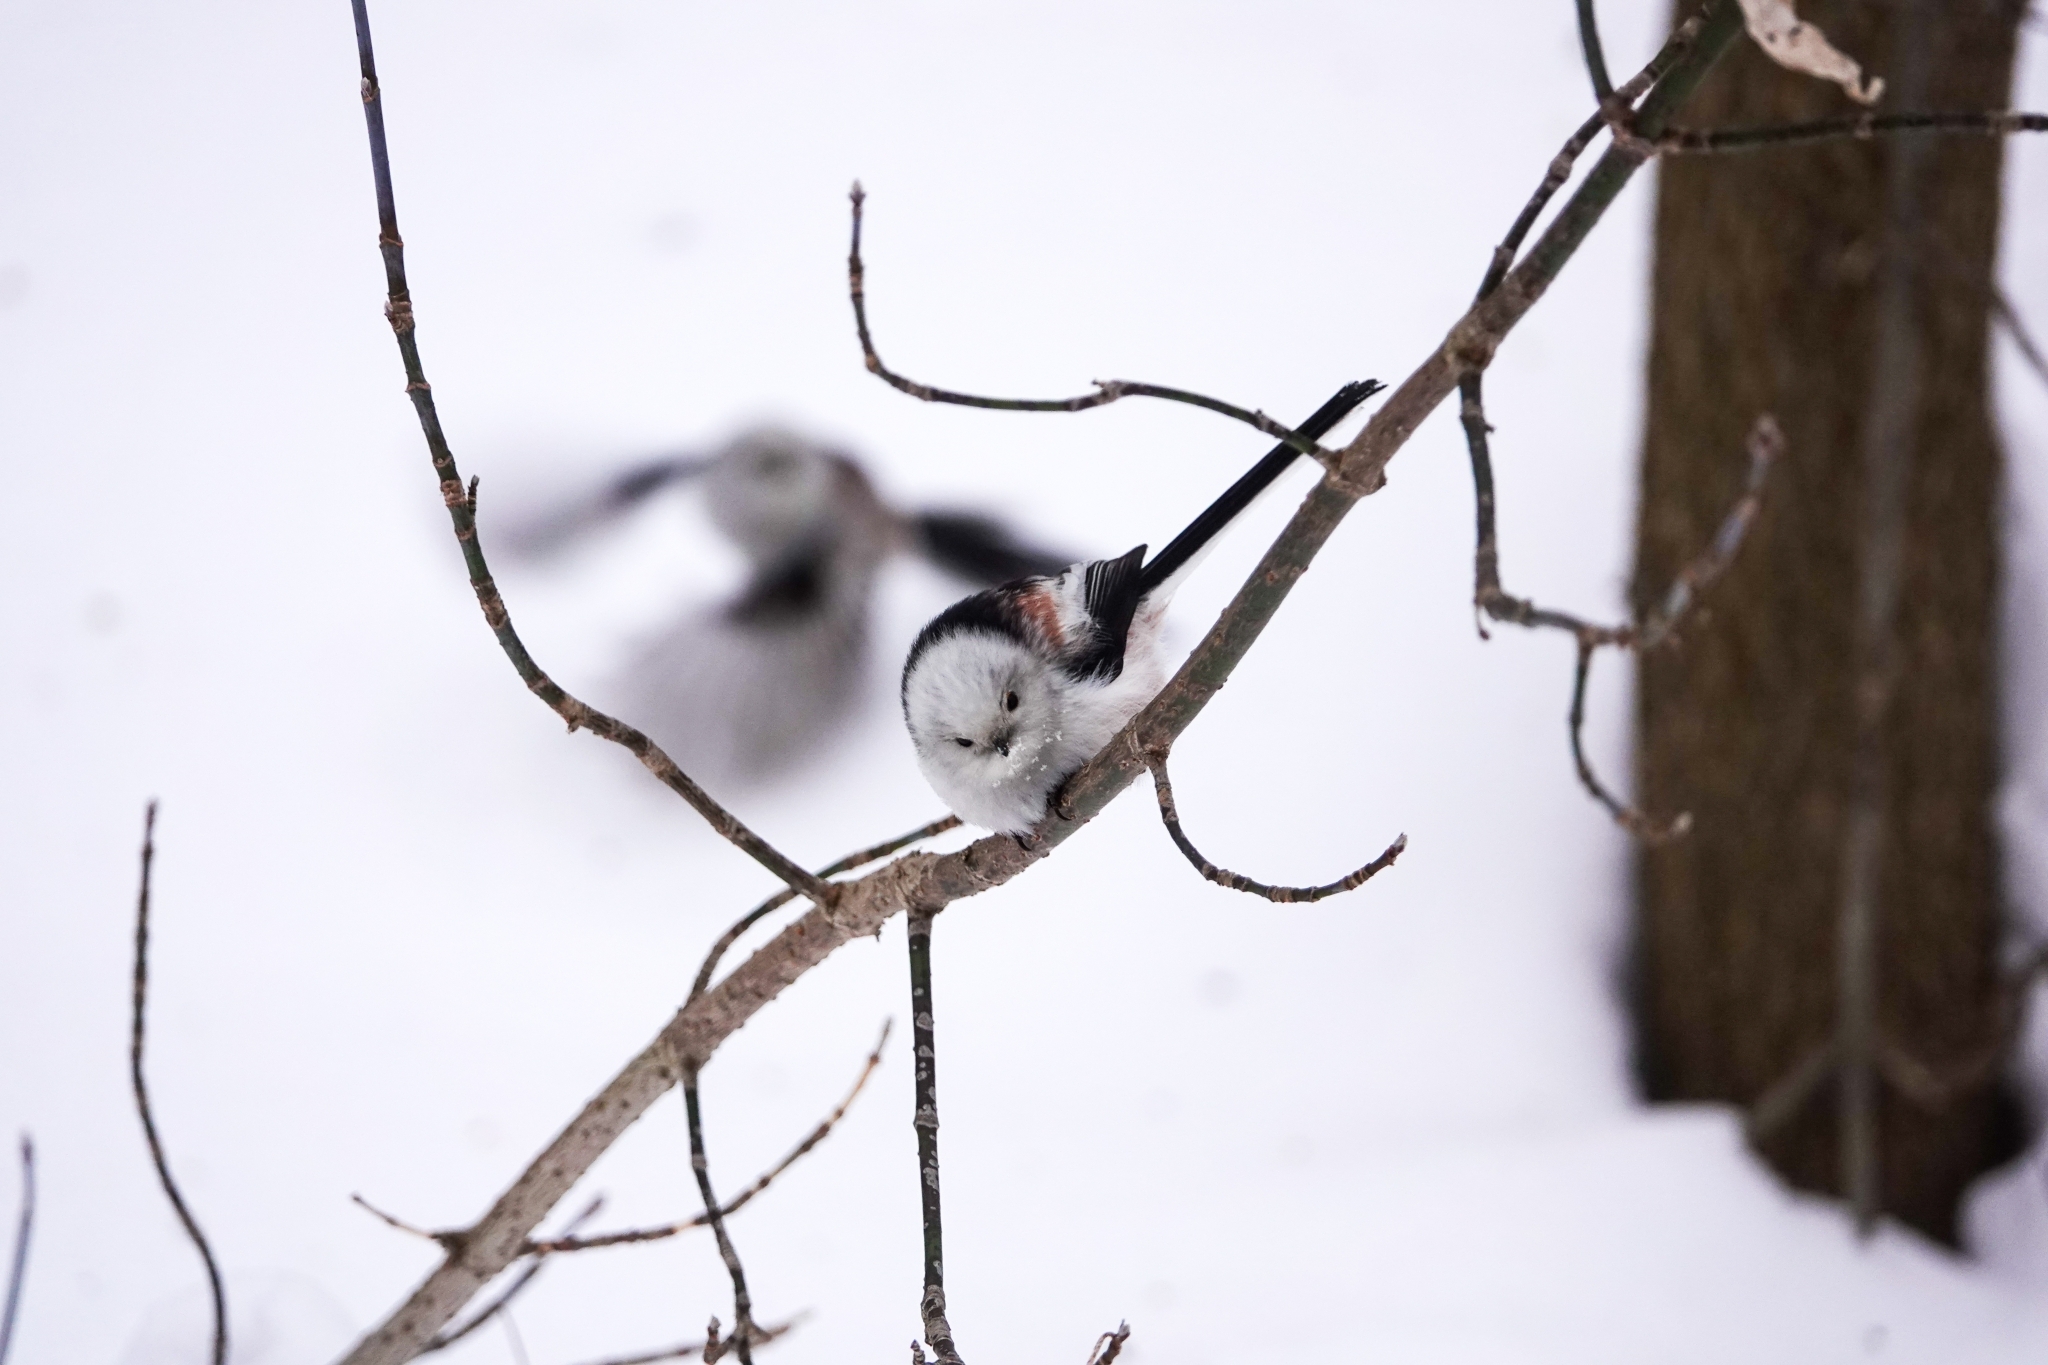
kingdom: Animalia
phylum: Chordata
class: Aves
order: Passeriformes
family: Aegithalidae
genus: Aegithalos
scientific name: Aegithalos caudatus
